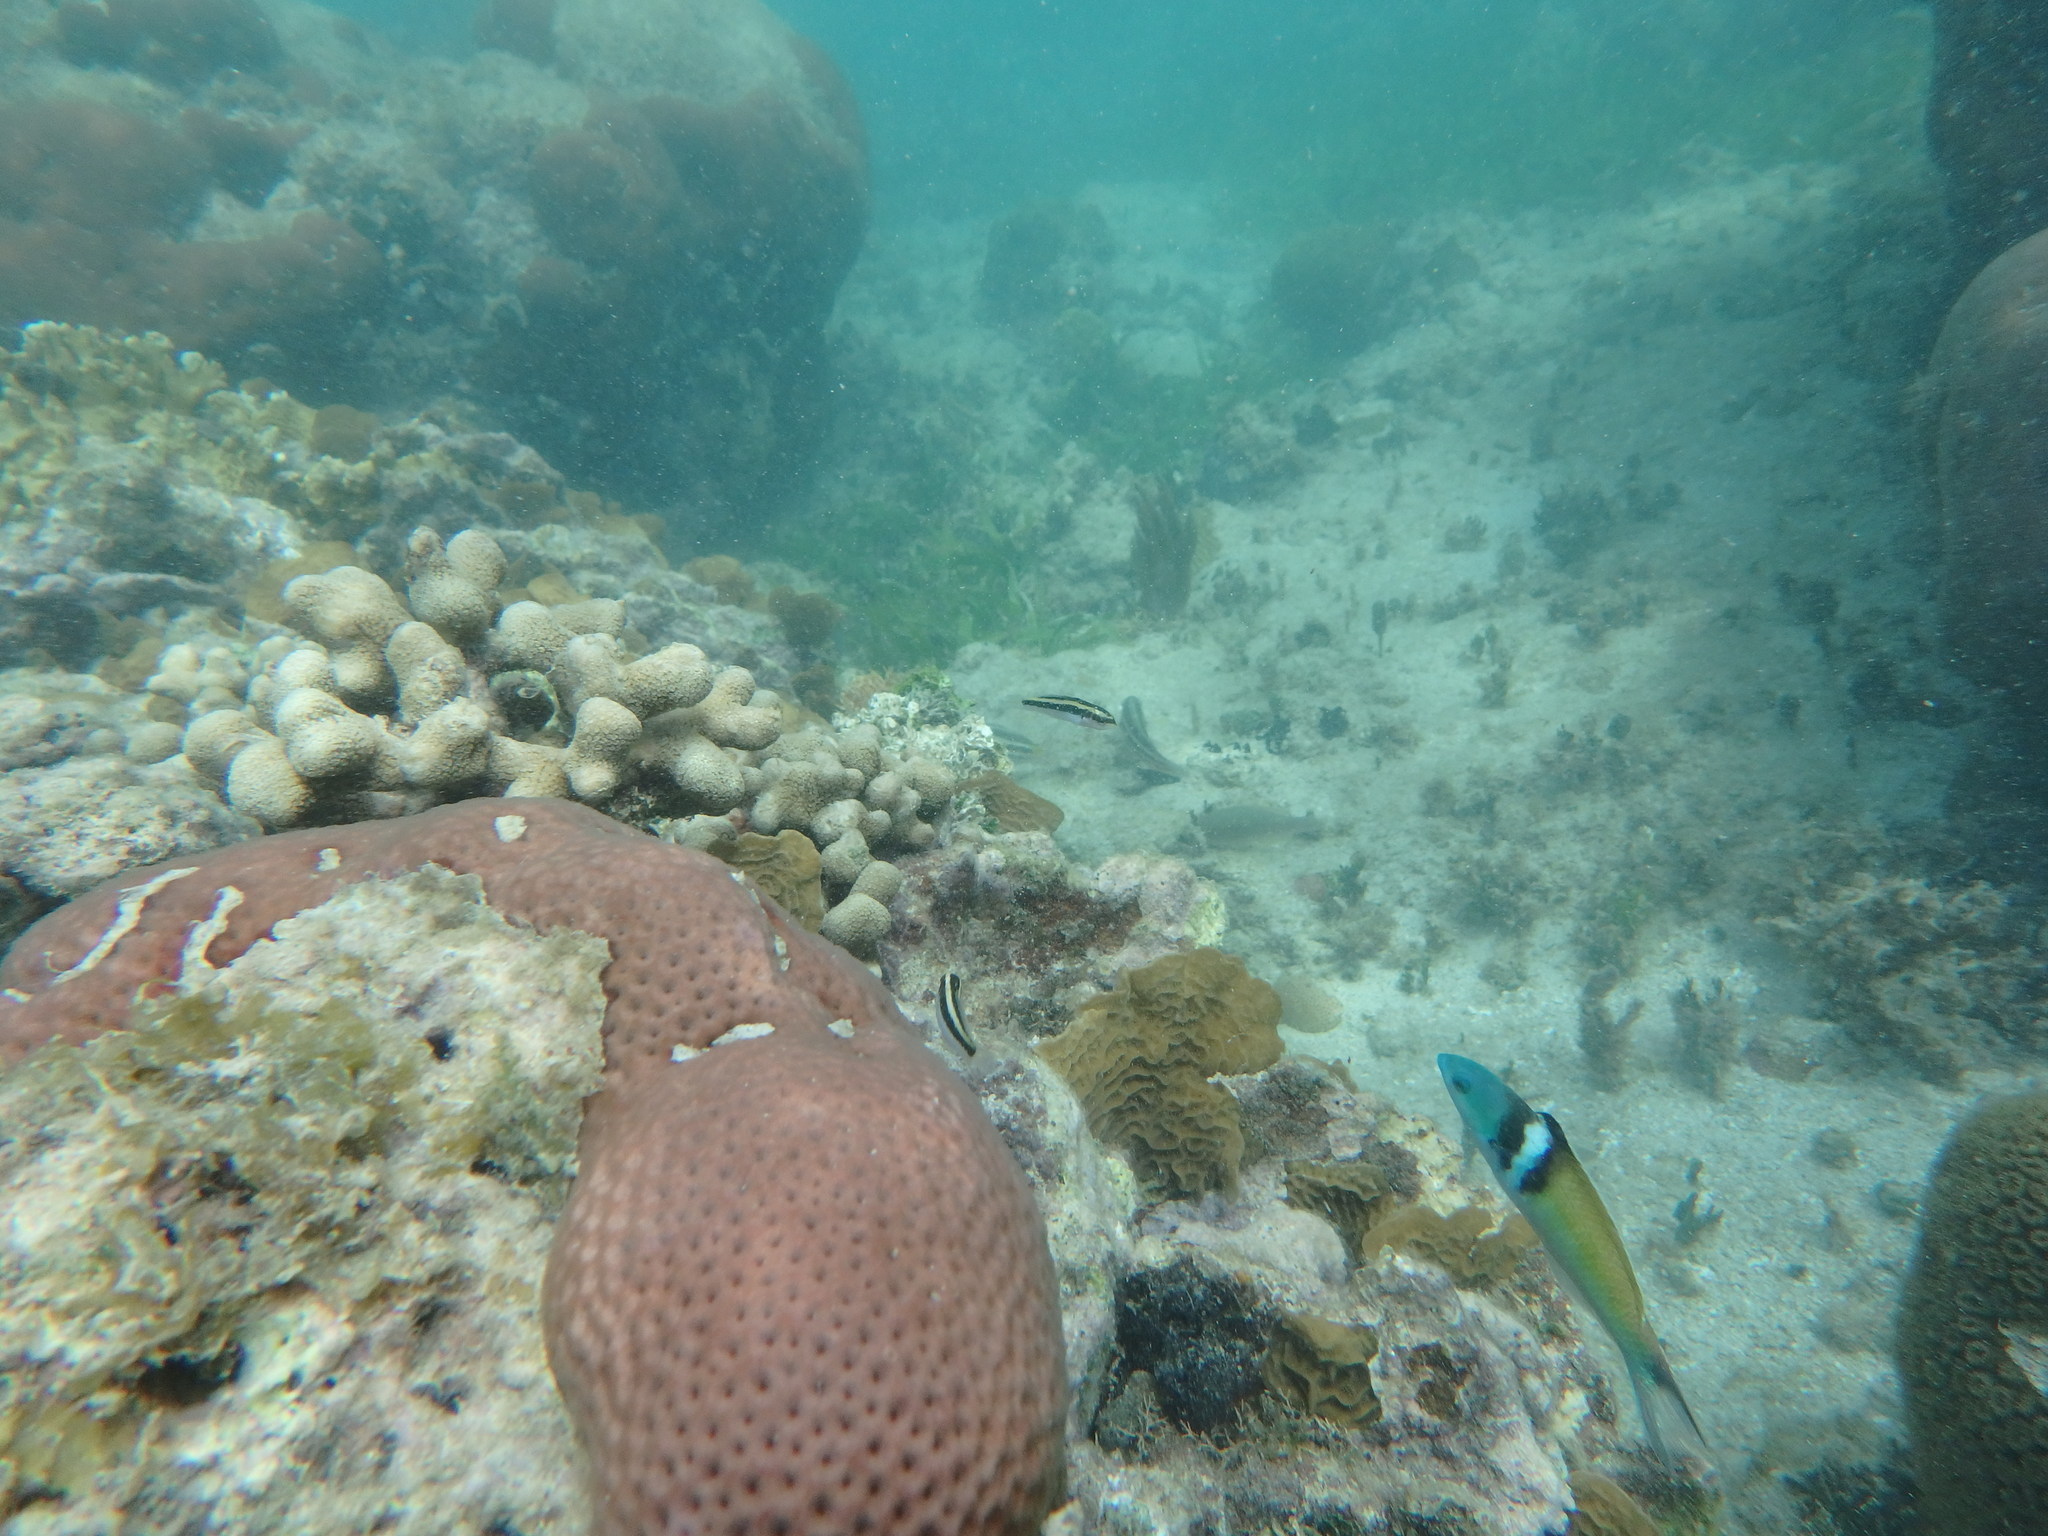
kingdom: Animalia
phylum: Chordata
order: Perciformes
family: Labridae
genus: Thalassoma
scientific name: Thalassoma bifasciatum
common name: Bluehead wrasse
